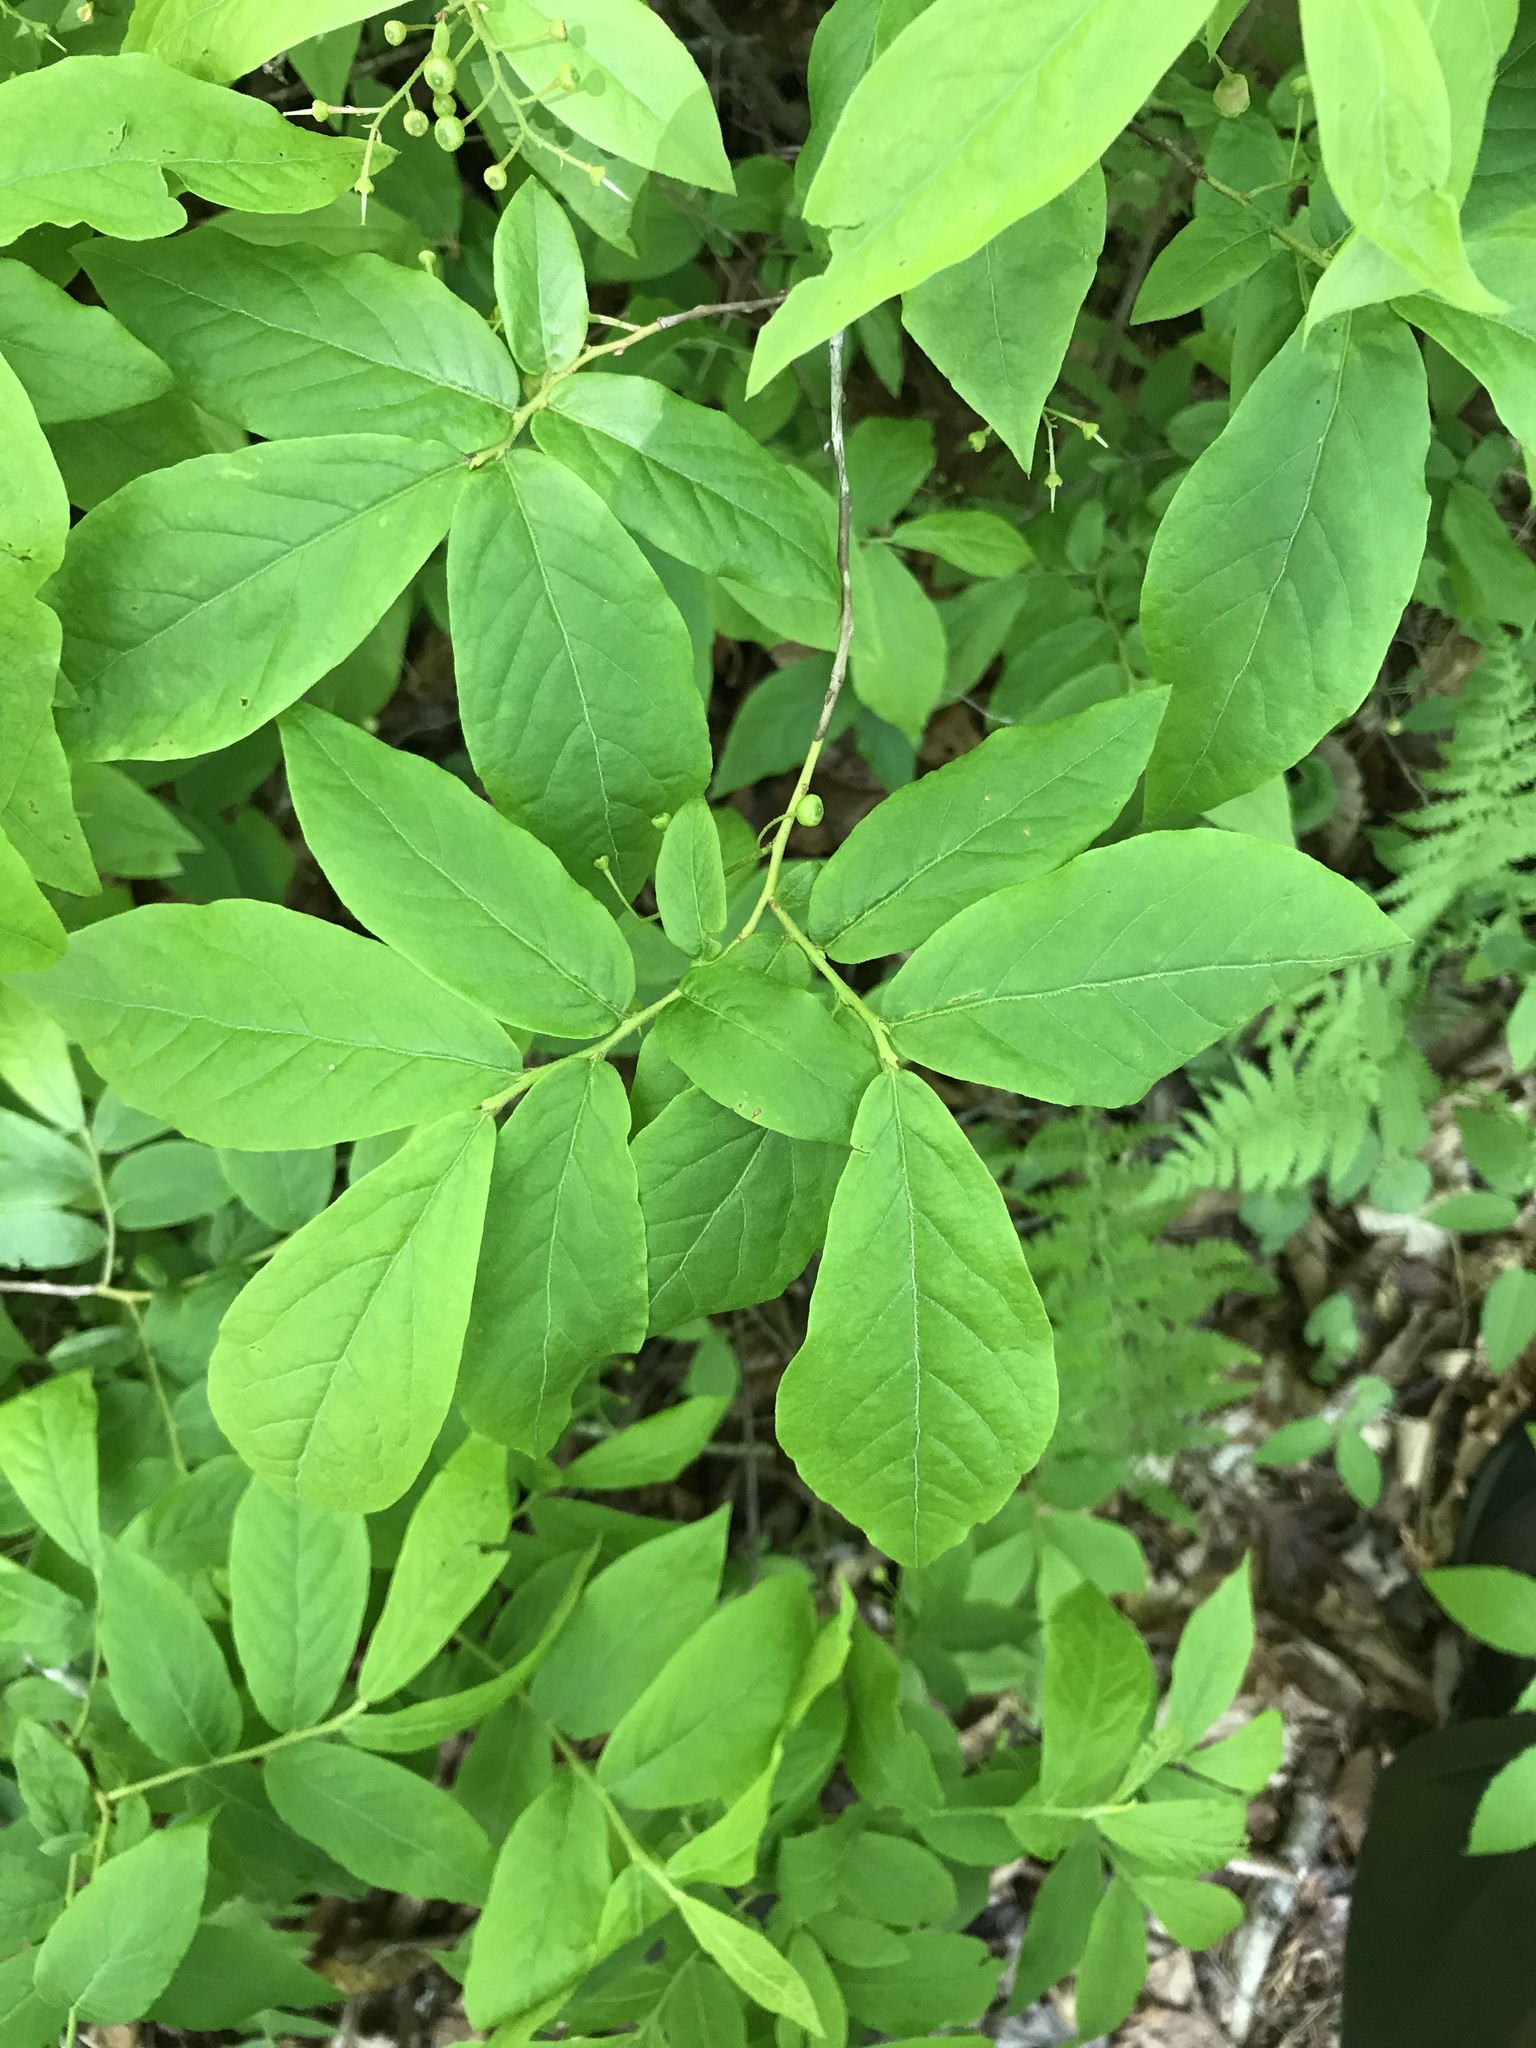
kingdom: Plantae
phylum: Tracheophyta
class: Magnoliopsida
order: Ericales
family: Ericaceae
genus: Gaylussacia
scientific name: Gaylussacia ursina
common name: Bear huckleberry
